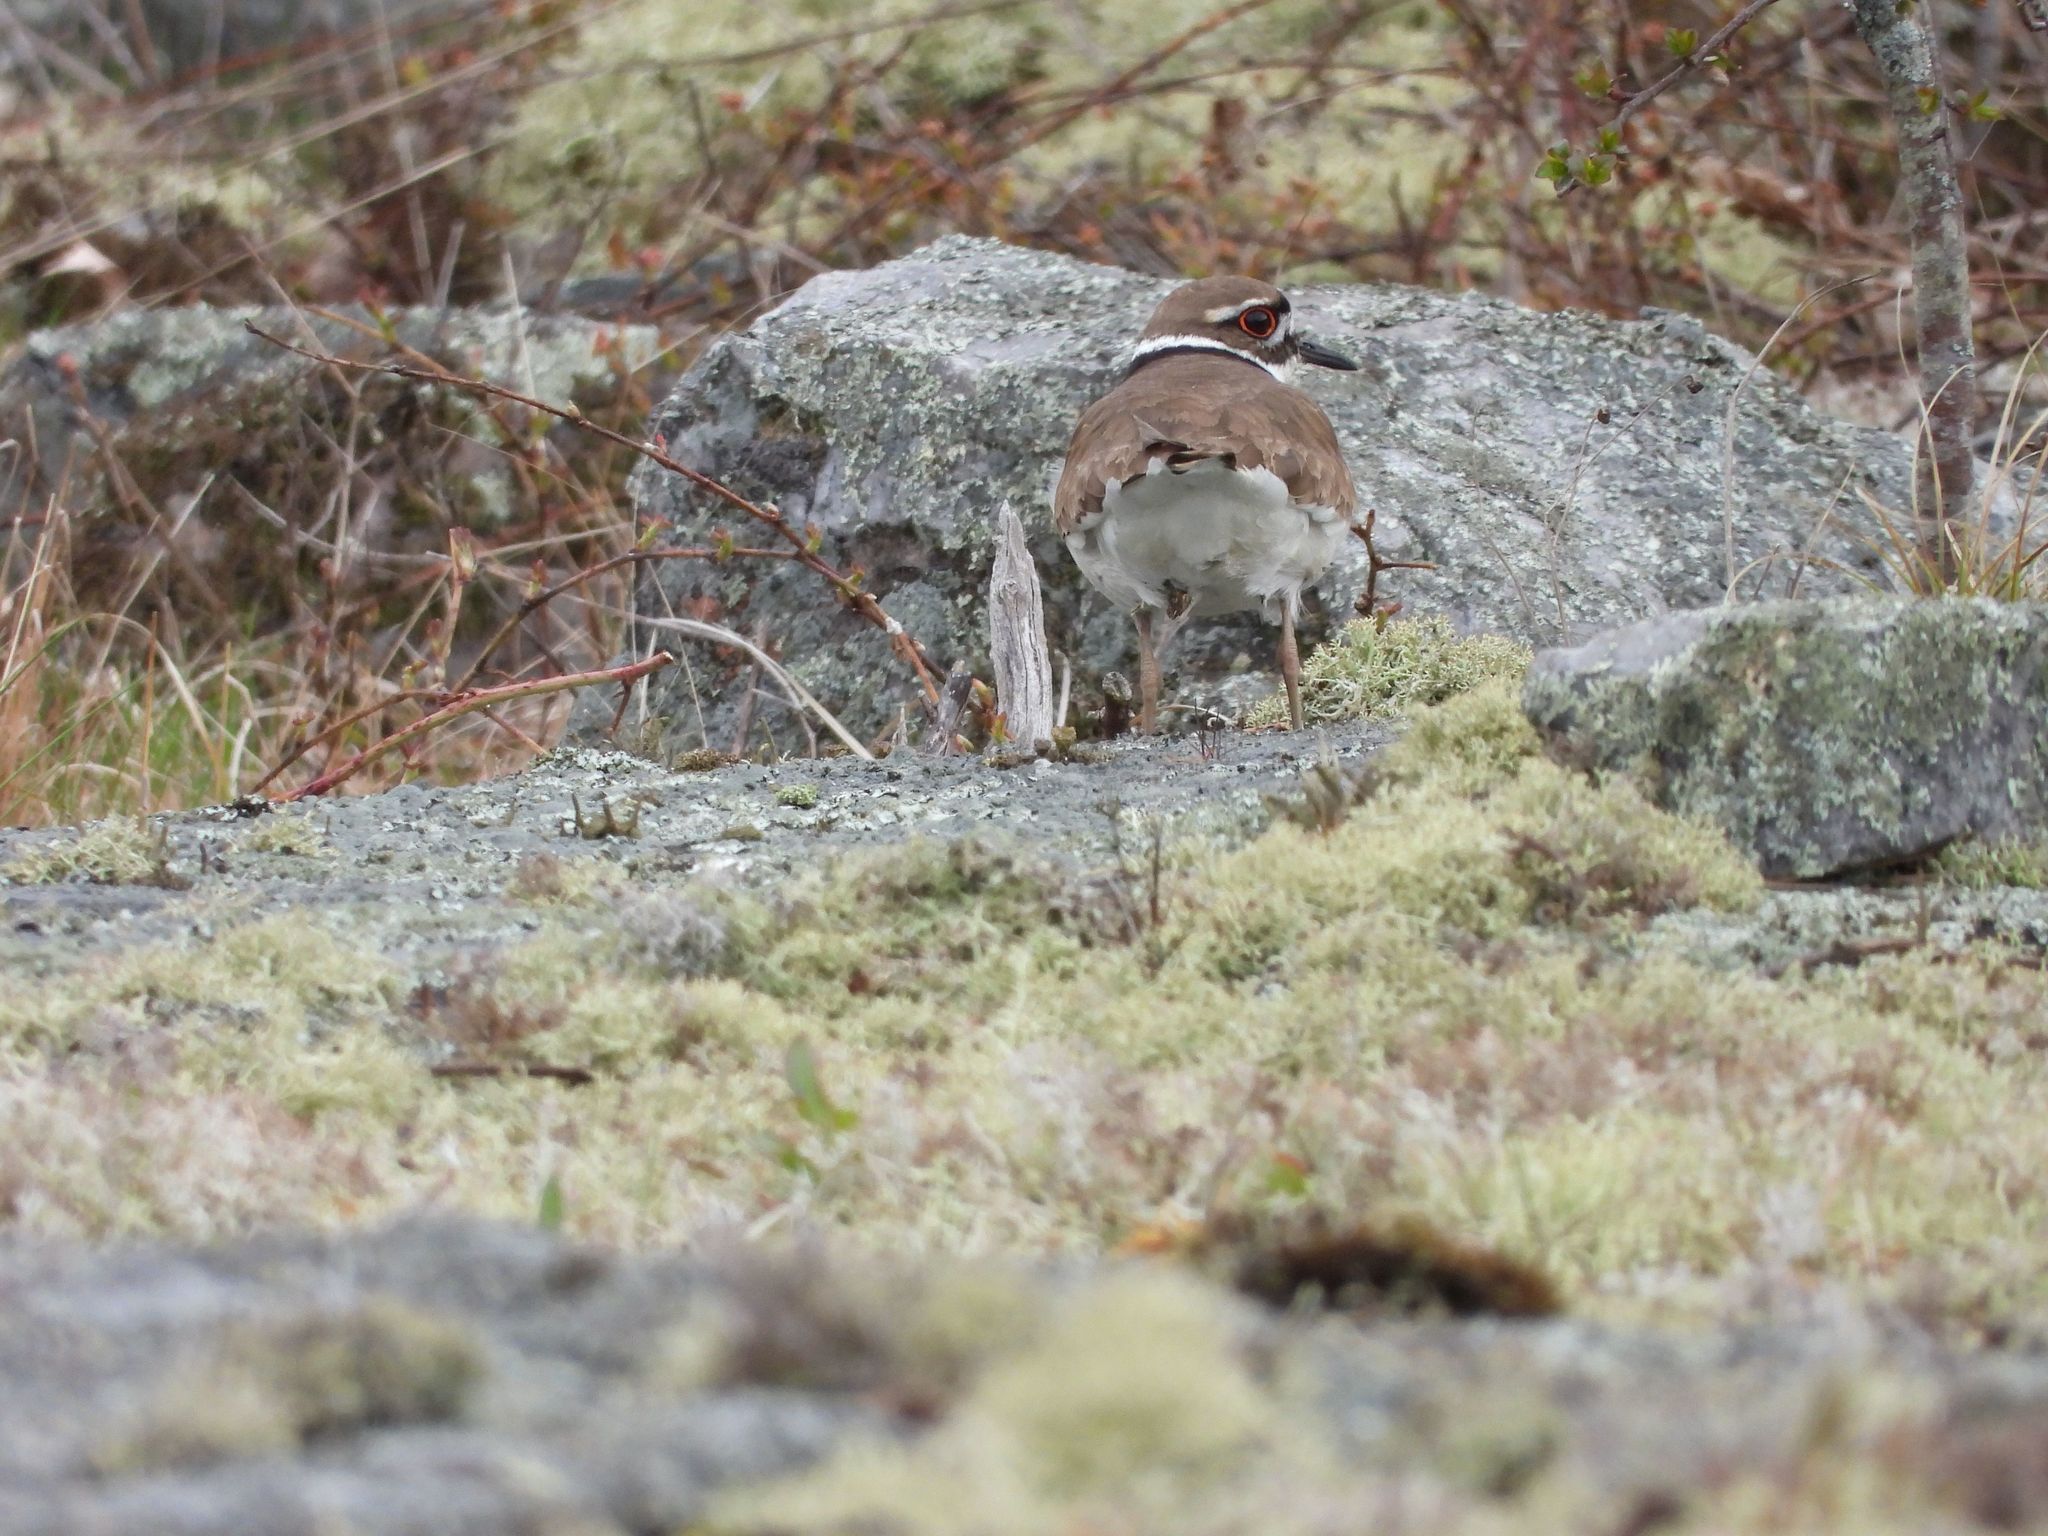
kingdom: Animalia
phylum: Chordata
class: Aves
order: Charadriiformes
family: Charadriidae
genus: Charadrius
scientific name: Charadrius vociferus
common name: Killdeer
